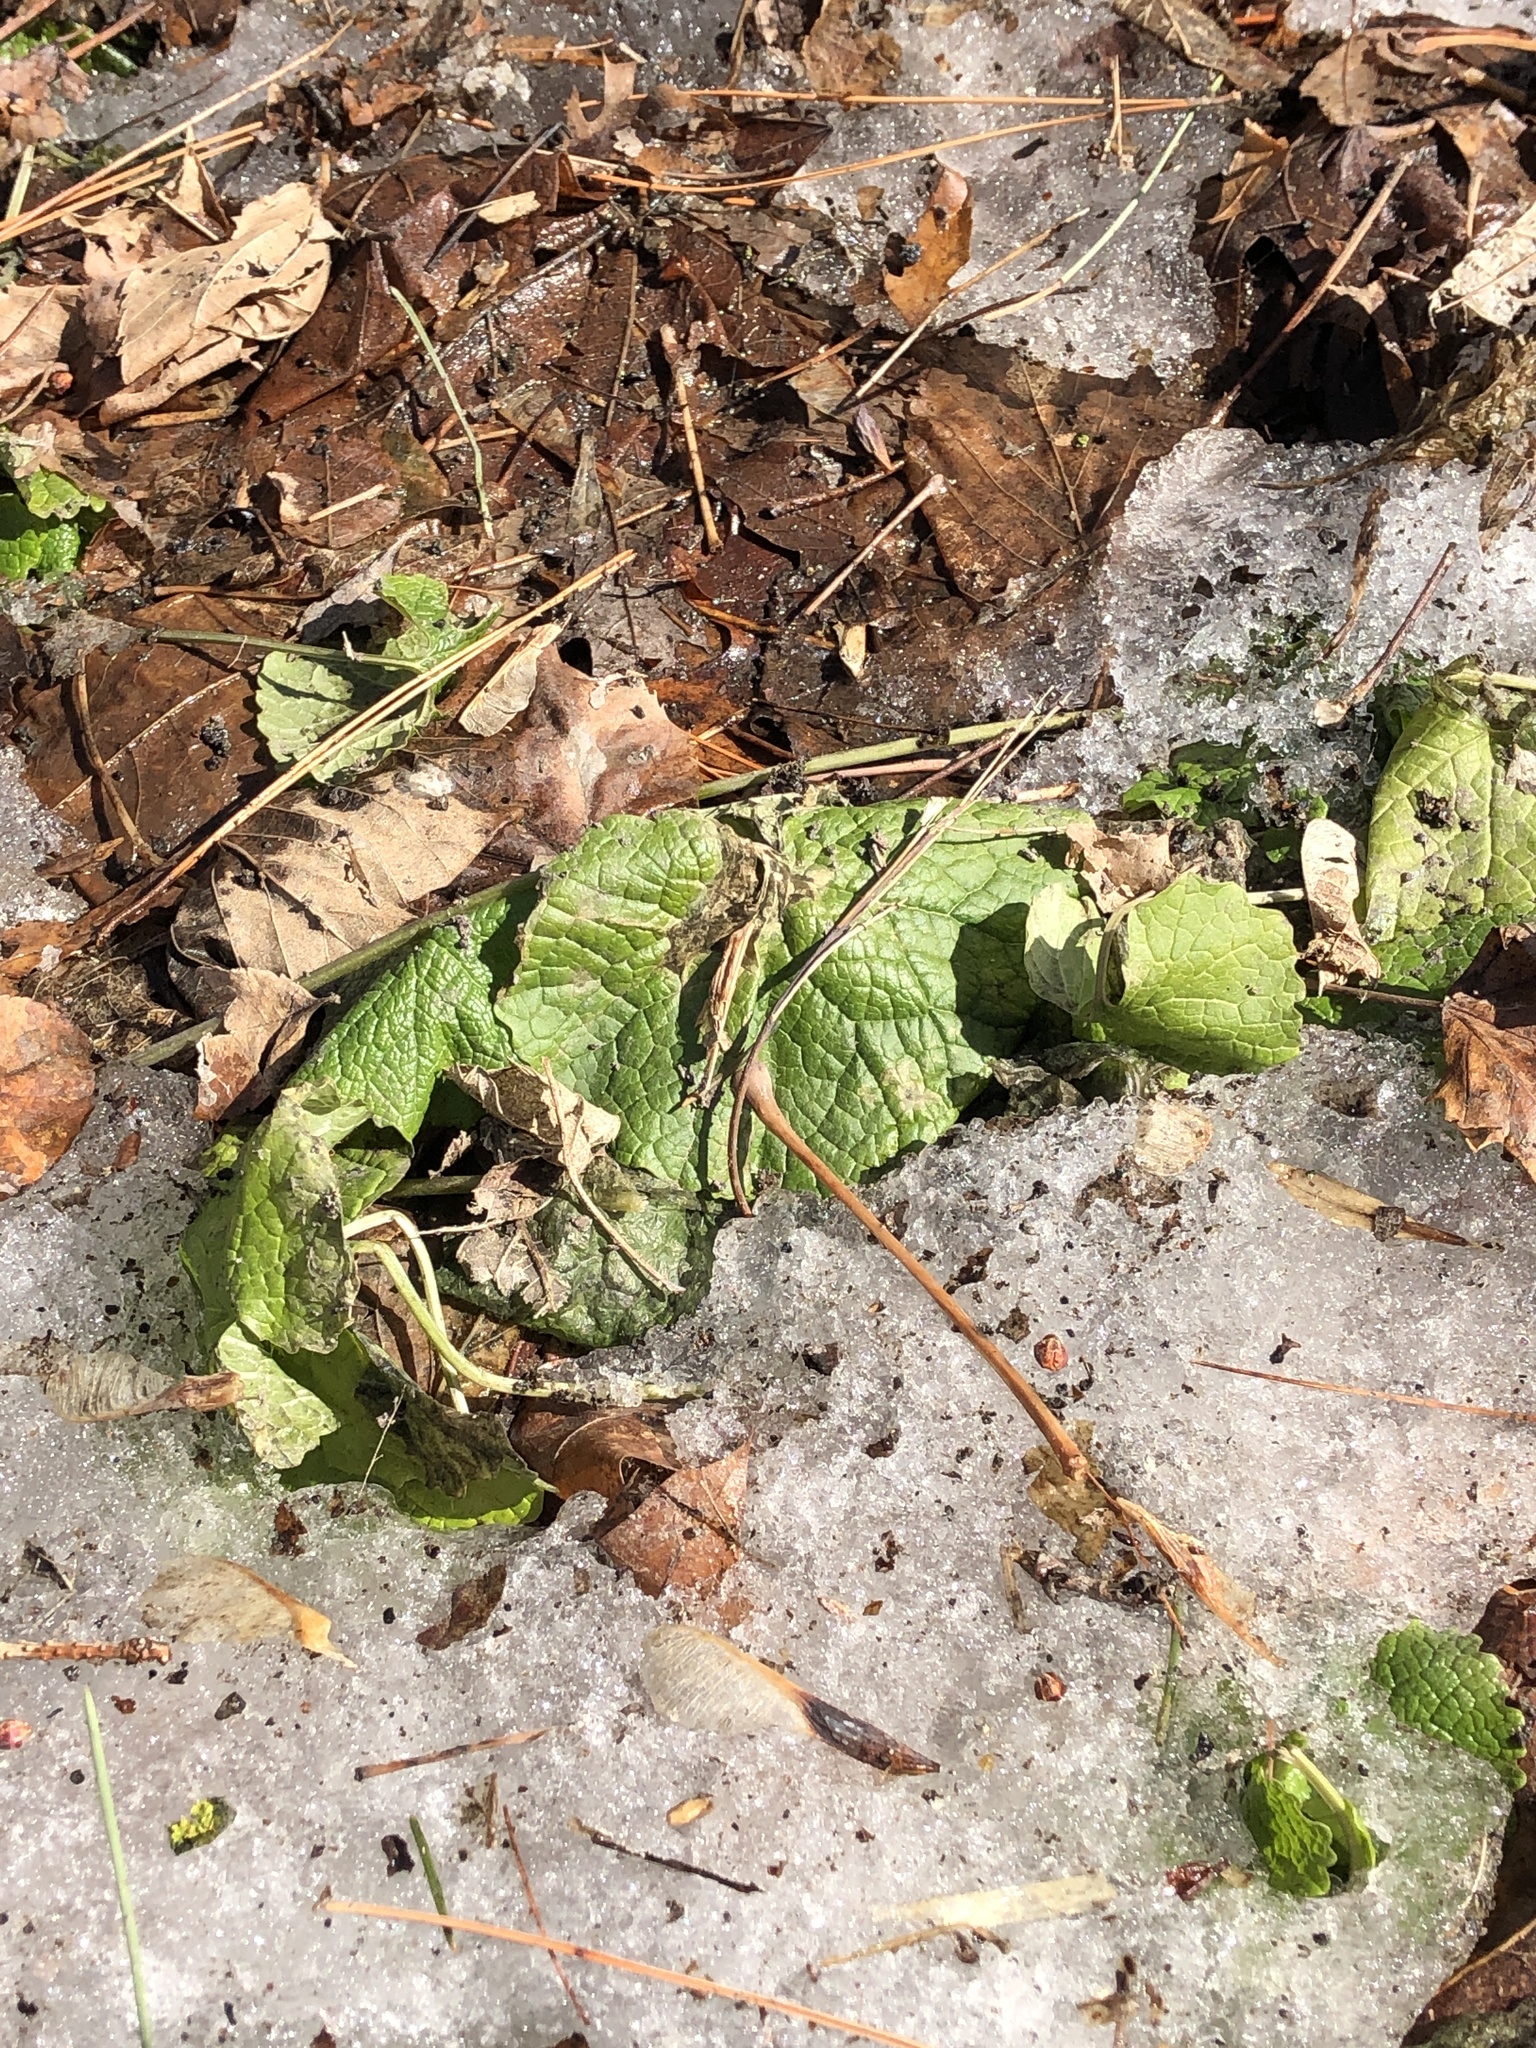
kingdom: Plantae
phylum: Tracheophyta
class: Magnoliopsida
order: Brassicales
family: Brassicaceae
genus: Alliaria
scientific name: Alliaria petiolata
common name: Garlic mustard
